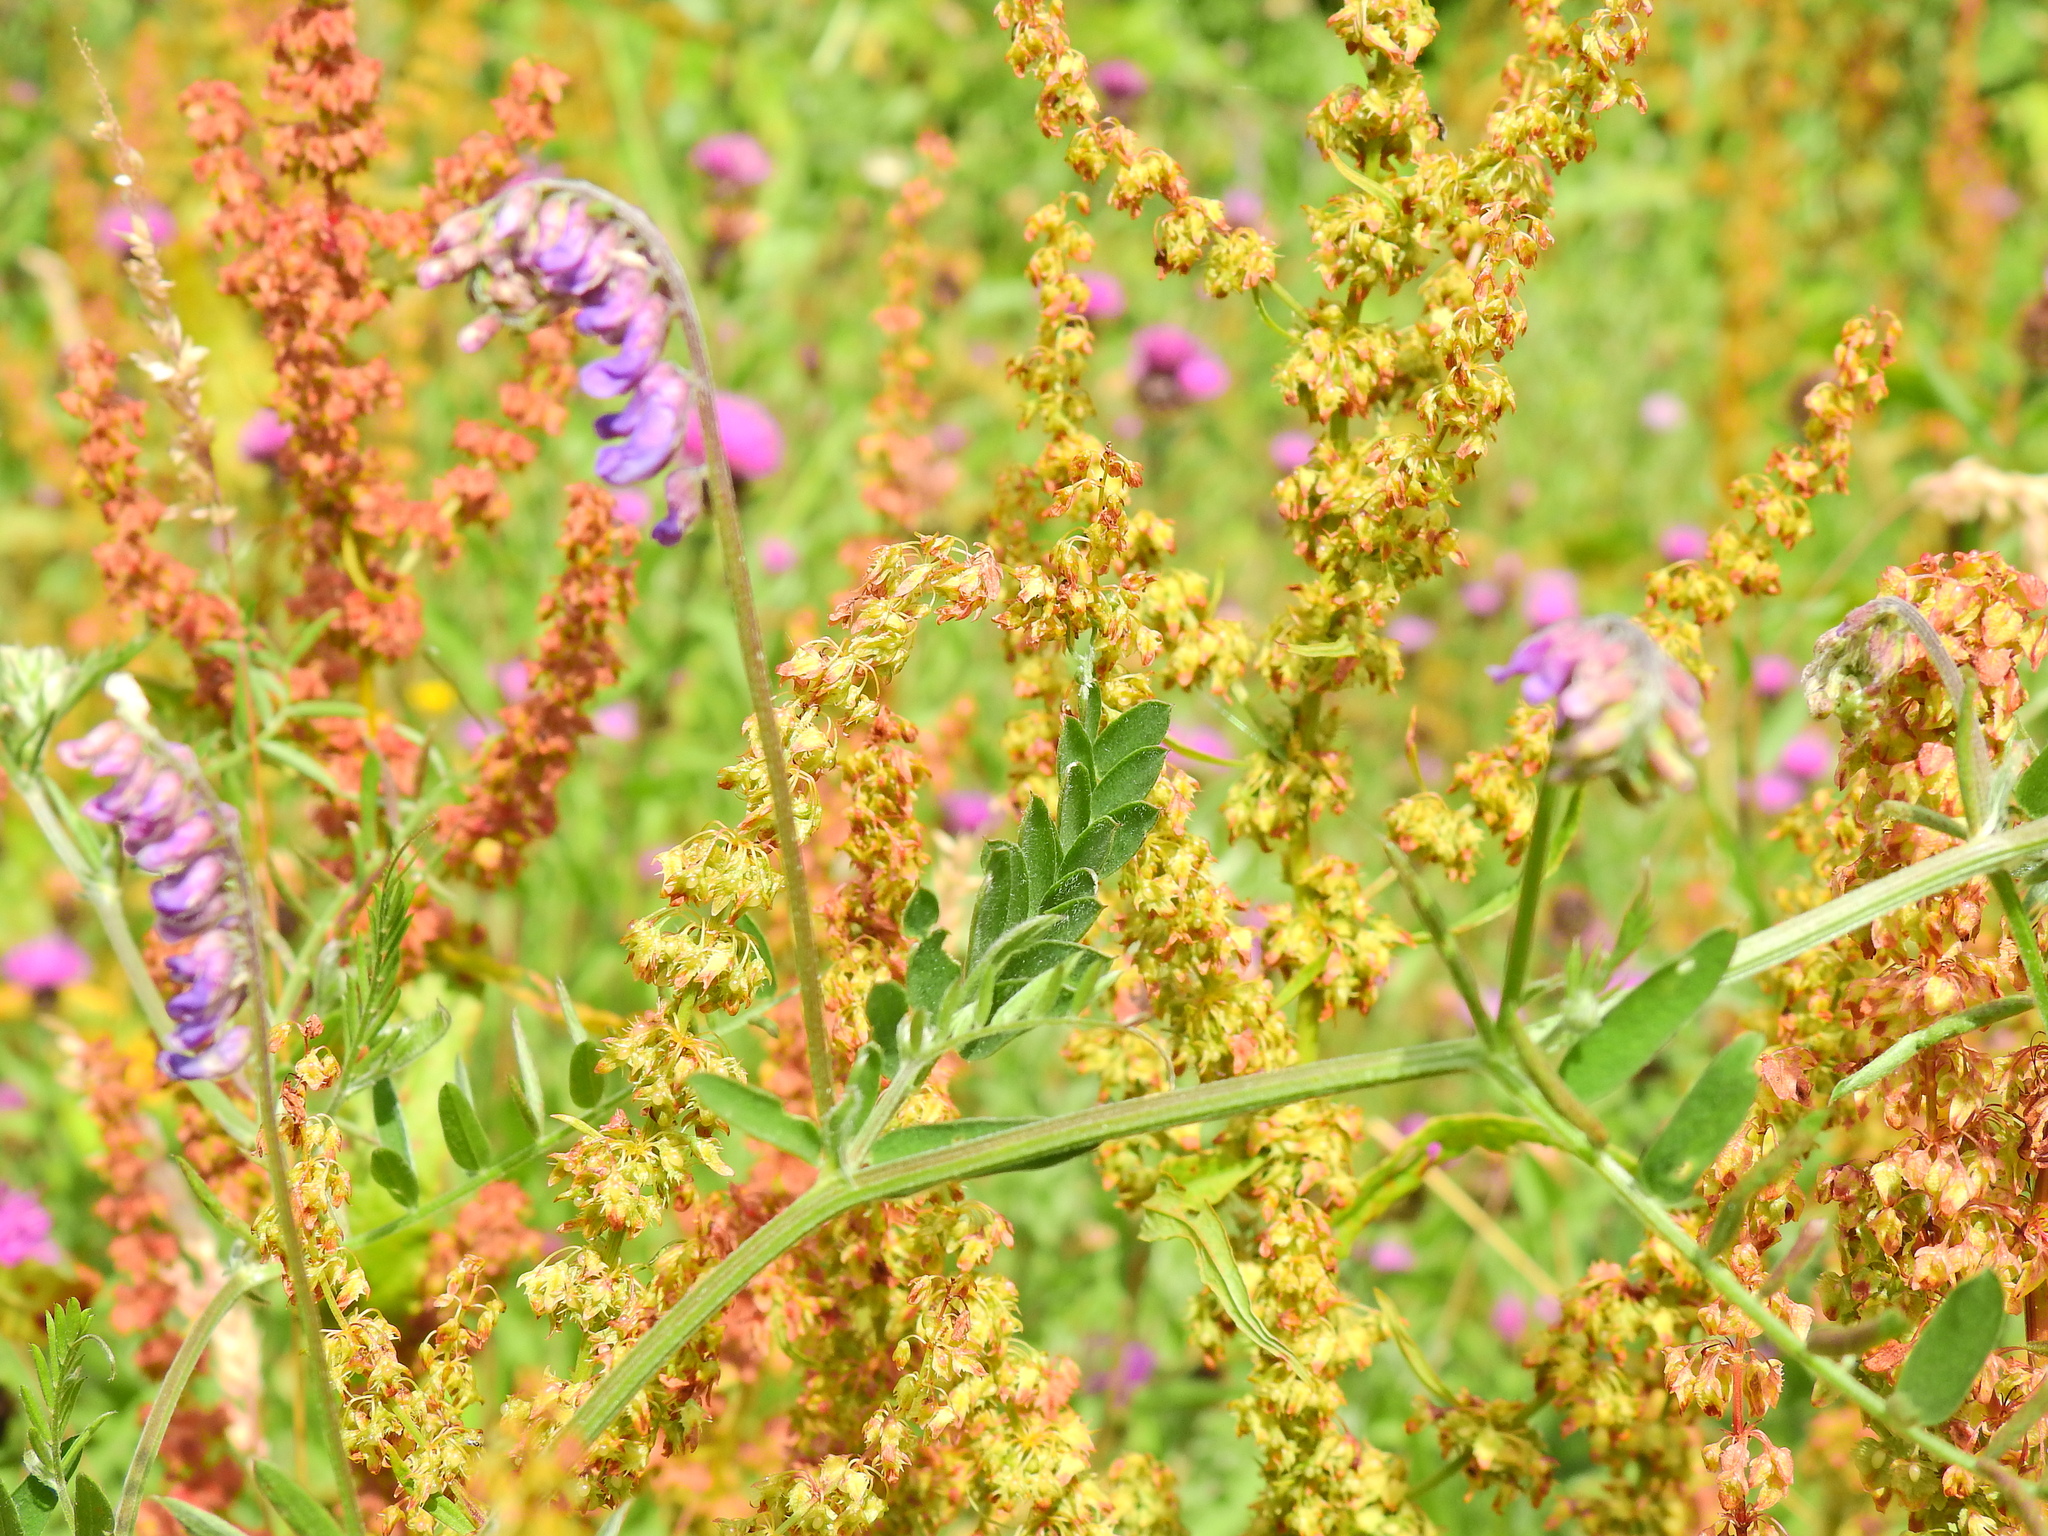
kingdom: Plantae
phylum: Tracheophyta
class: Magnoliopsida
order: Caryophyllales
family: Polygonaceae
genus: Rumex
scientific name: Rumex obtusifolius
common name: Bitter dock
